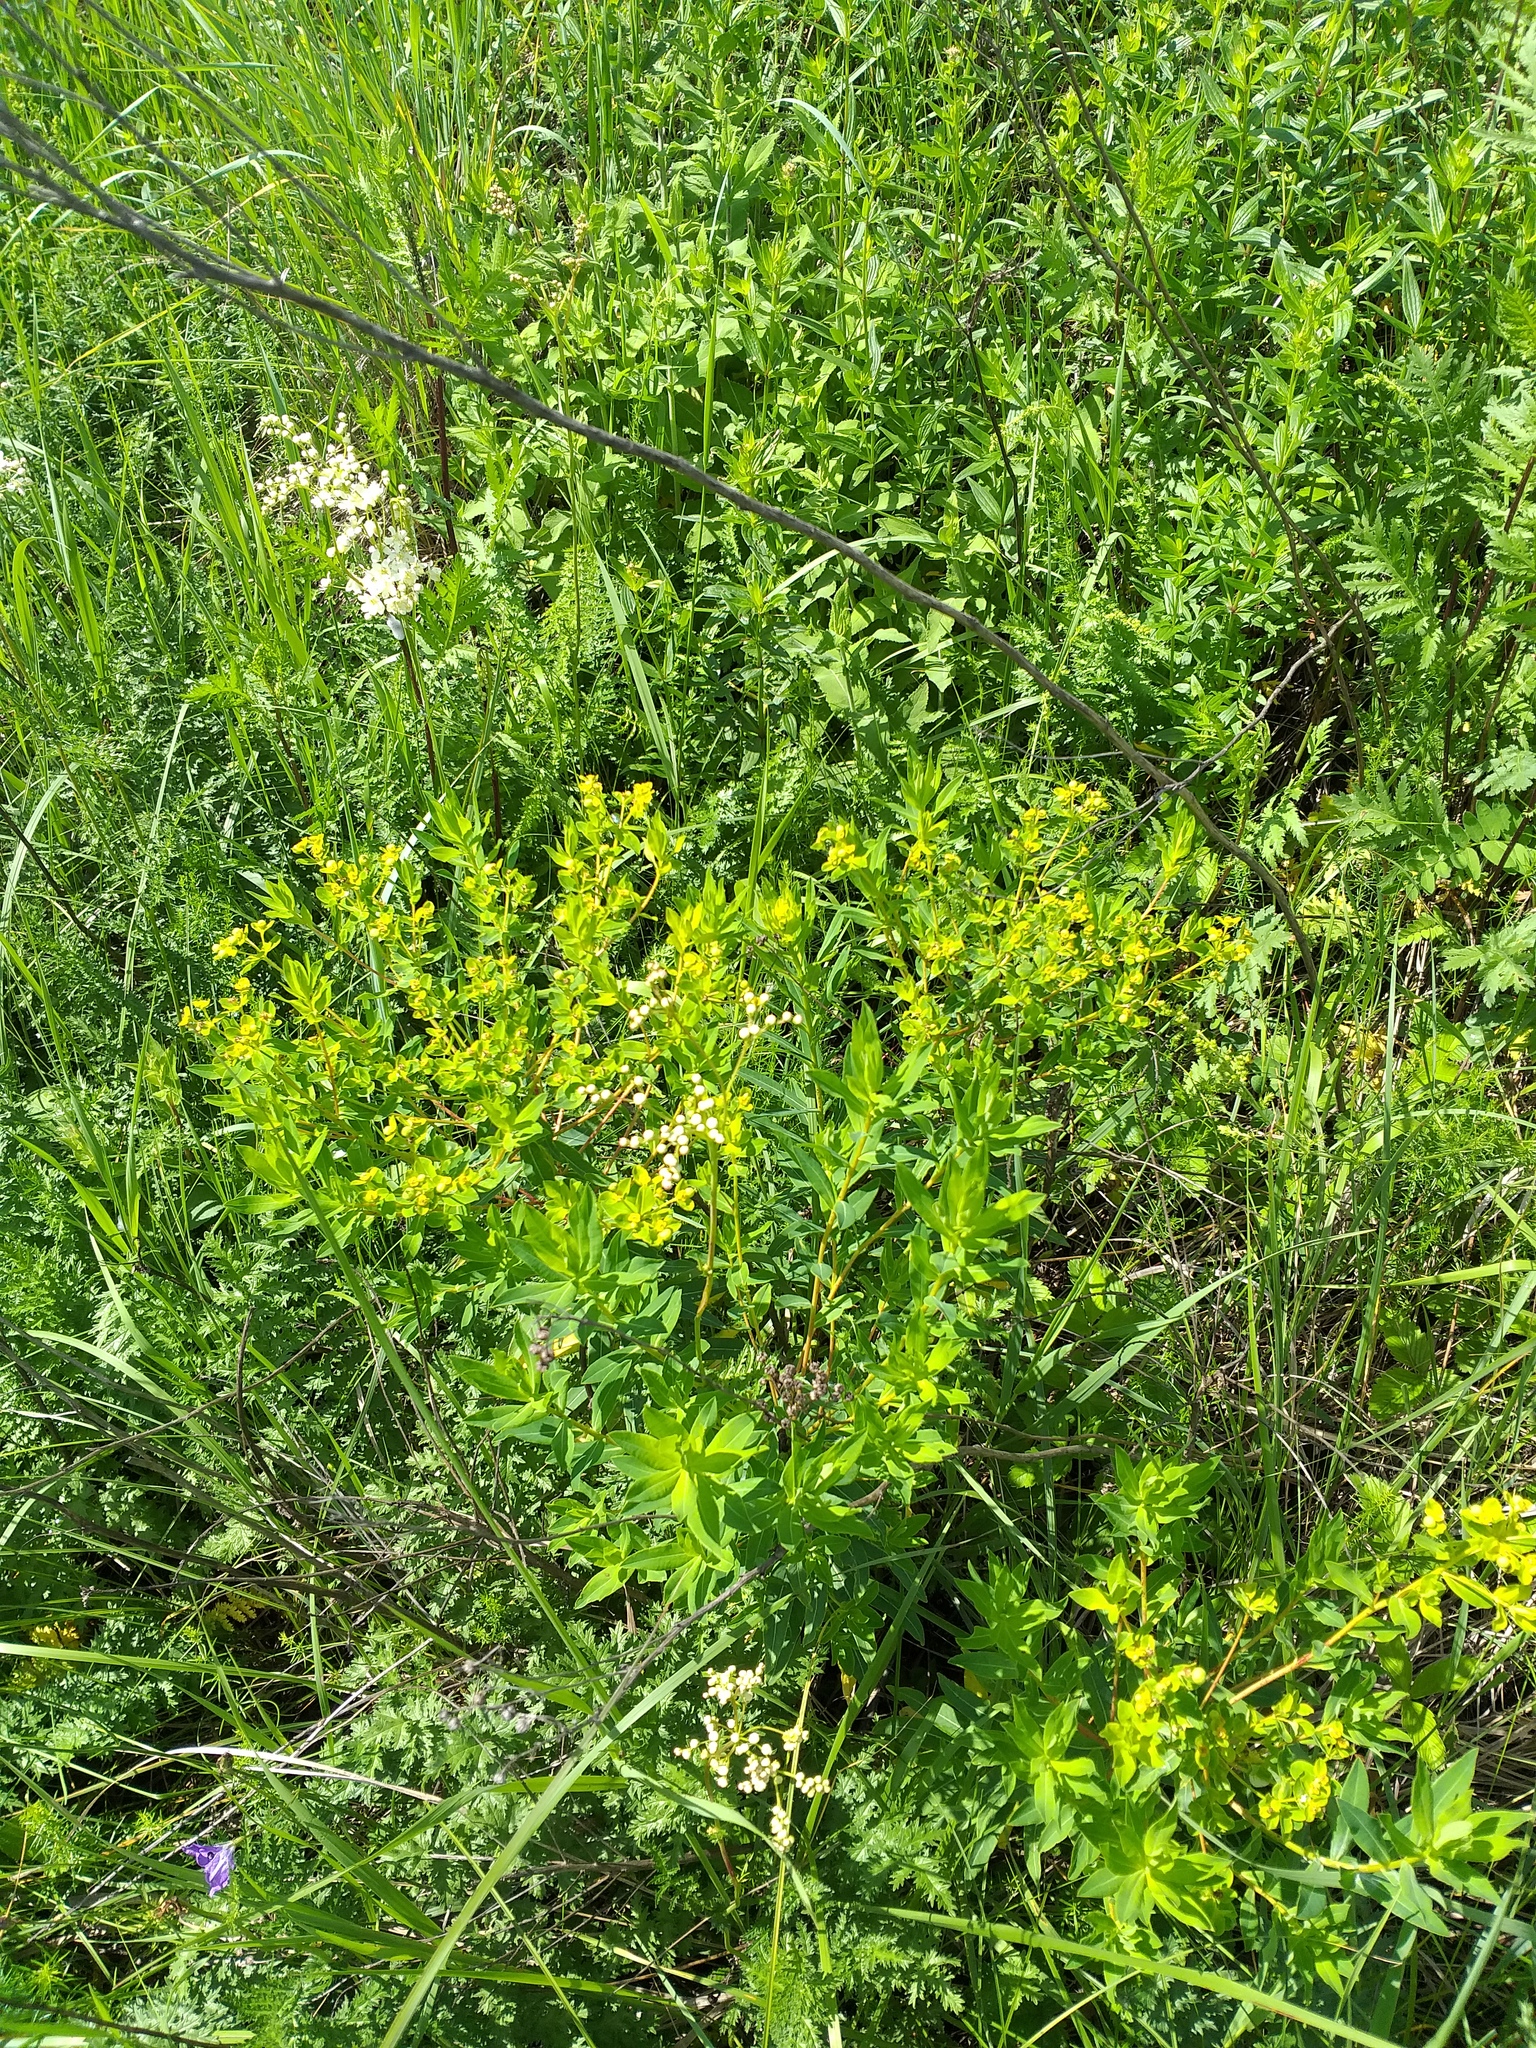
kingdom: Plantae
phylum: Tracheophyta
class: Magnoliopsida
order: Rosales
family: Rosaceae
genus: Filipendula
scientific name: Filipendula vulgaris
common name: Dropwort
